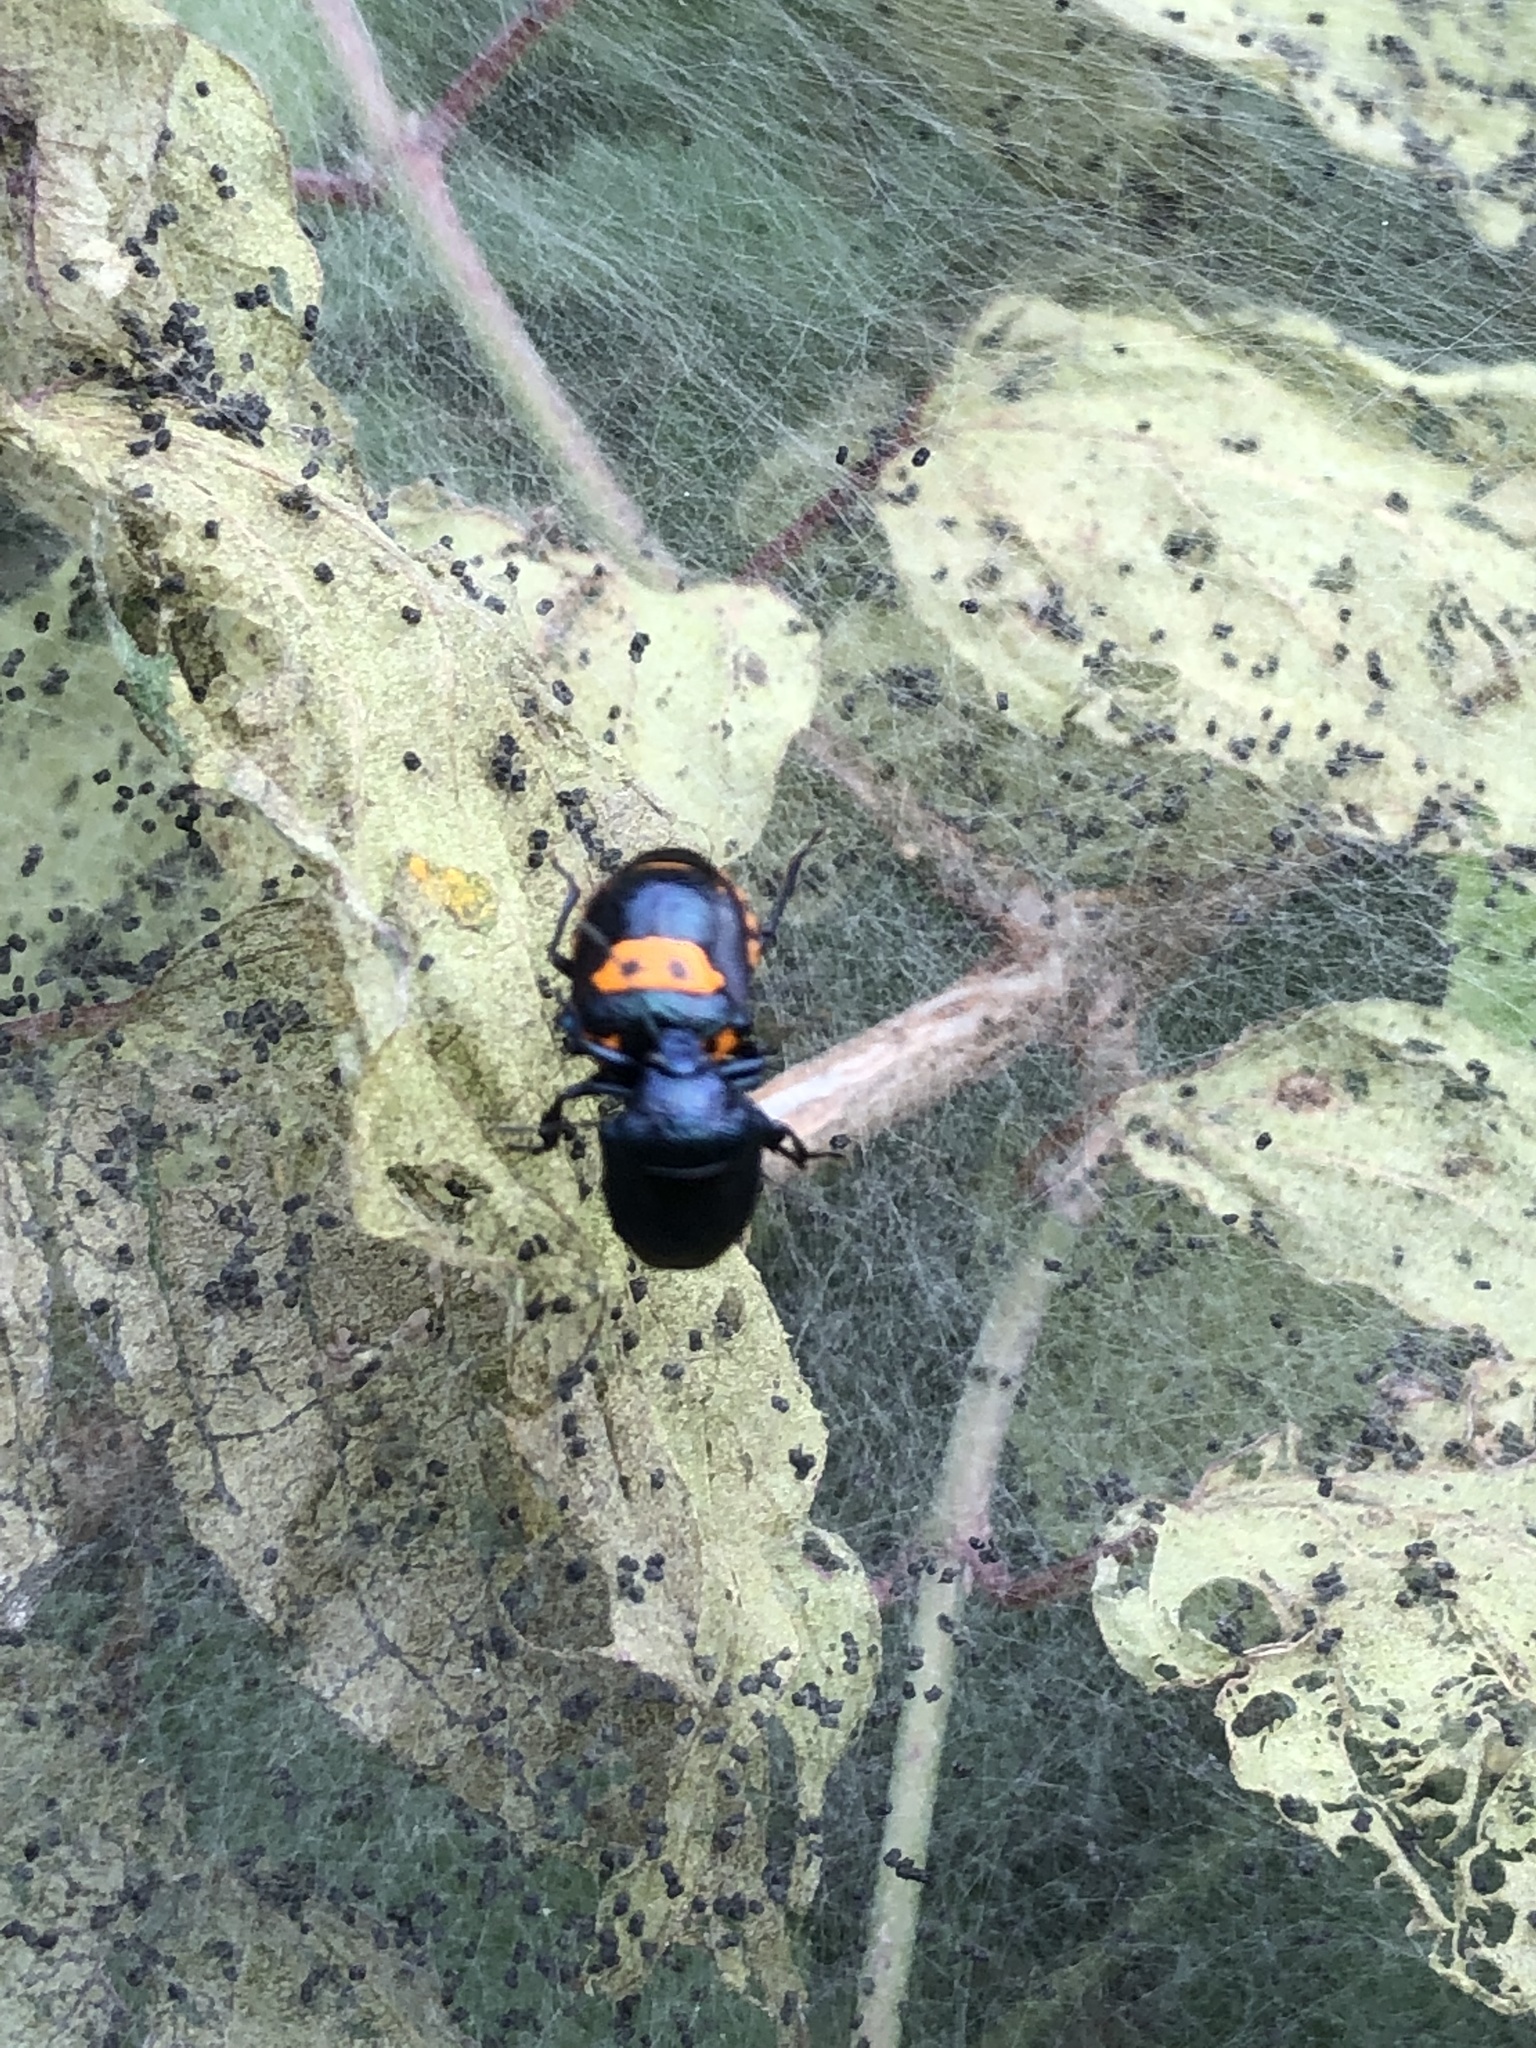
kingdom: Animalia
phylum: Arthropoda
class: Insecta
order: Hemiptera
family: Pentatomidae
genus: Stiretrus
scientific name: Stiretrus anchorago
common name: Anchor stink bug
